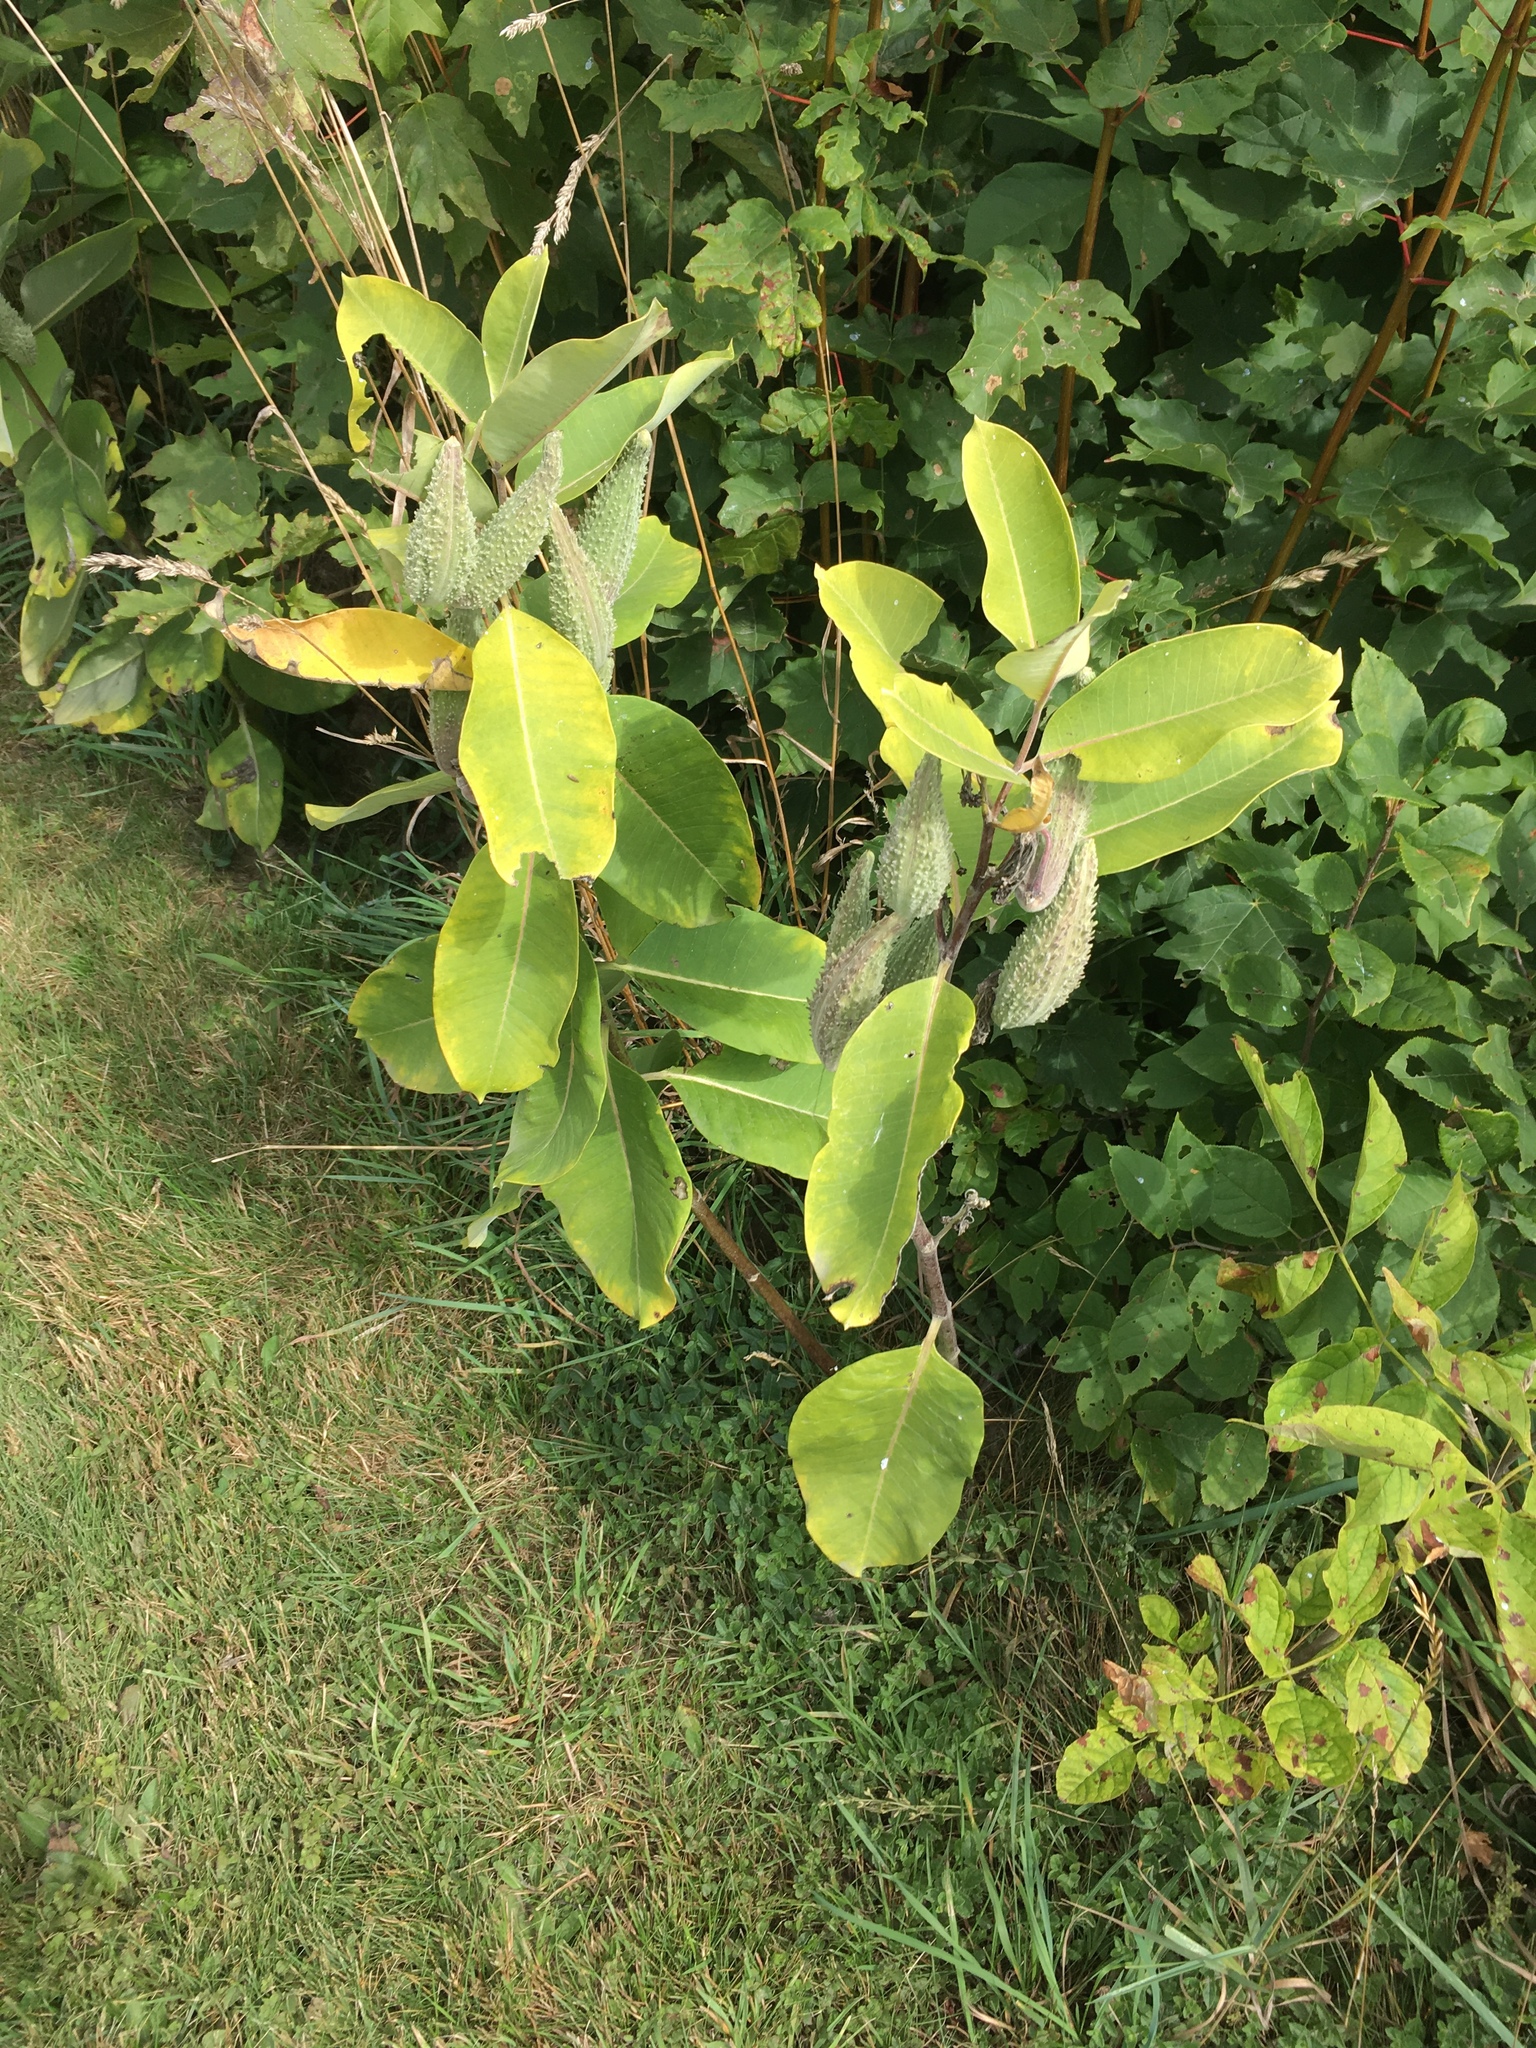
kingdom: Plantae
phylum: Tracheophyta
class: Magnoliopsida
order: Gentianales
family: Apocynaceae
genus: Asclepias
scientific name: Asclepias syriaca
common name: Common milkweed
